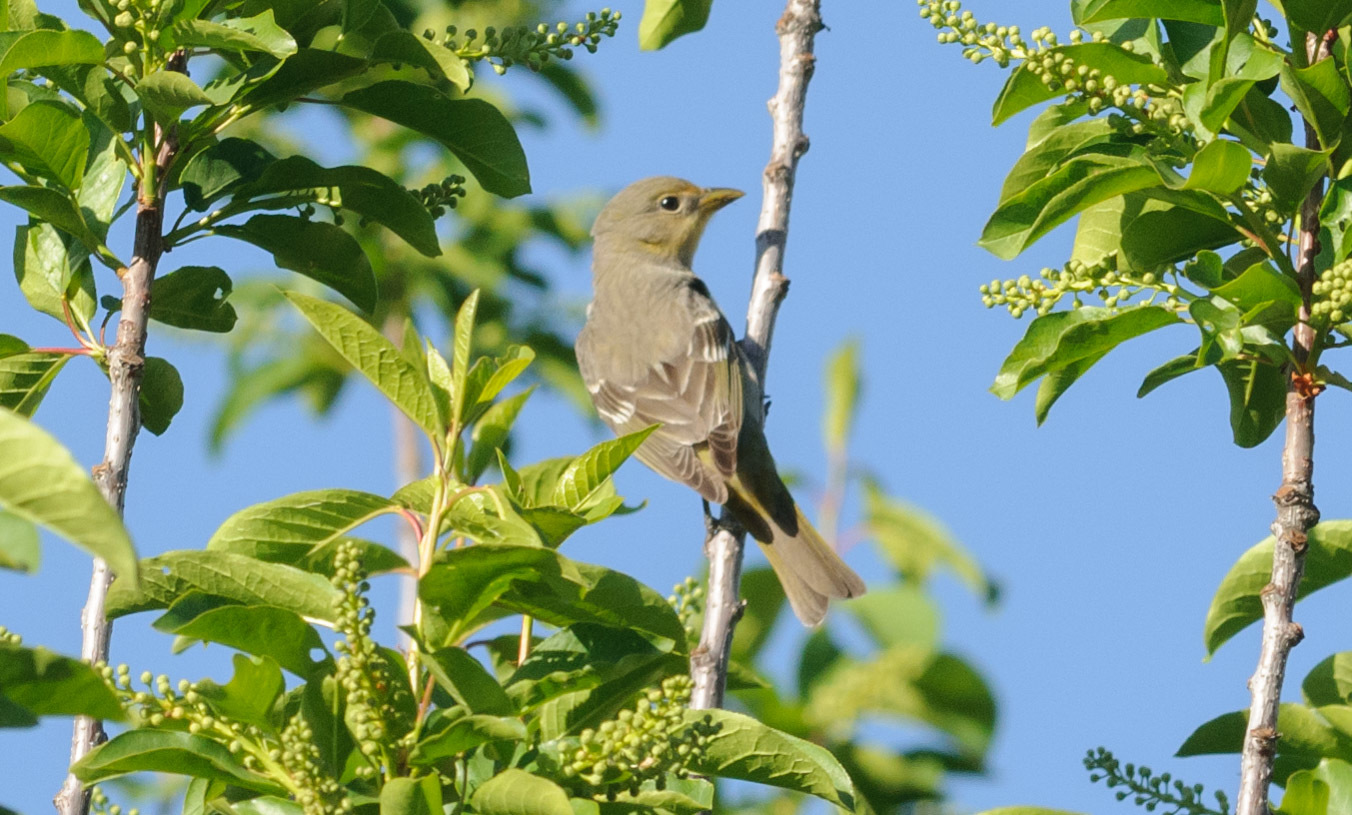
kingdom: Animalia
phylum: Chordata
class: Aves
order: Passeriformes
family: Cardinalidae
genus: Piranga
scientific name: Piranga ludoviciana
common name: Western tanager
